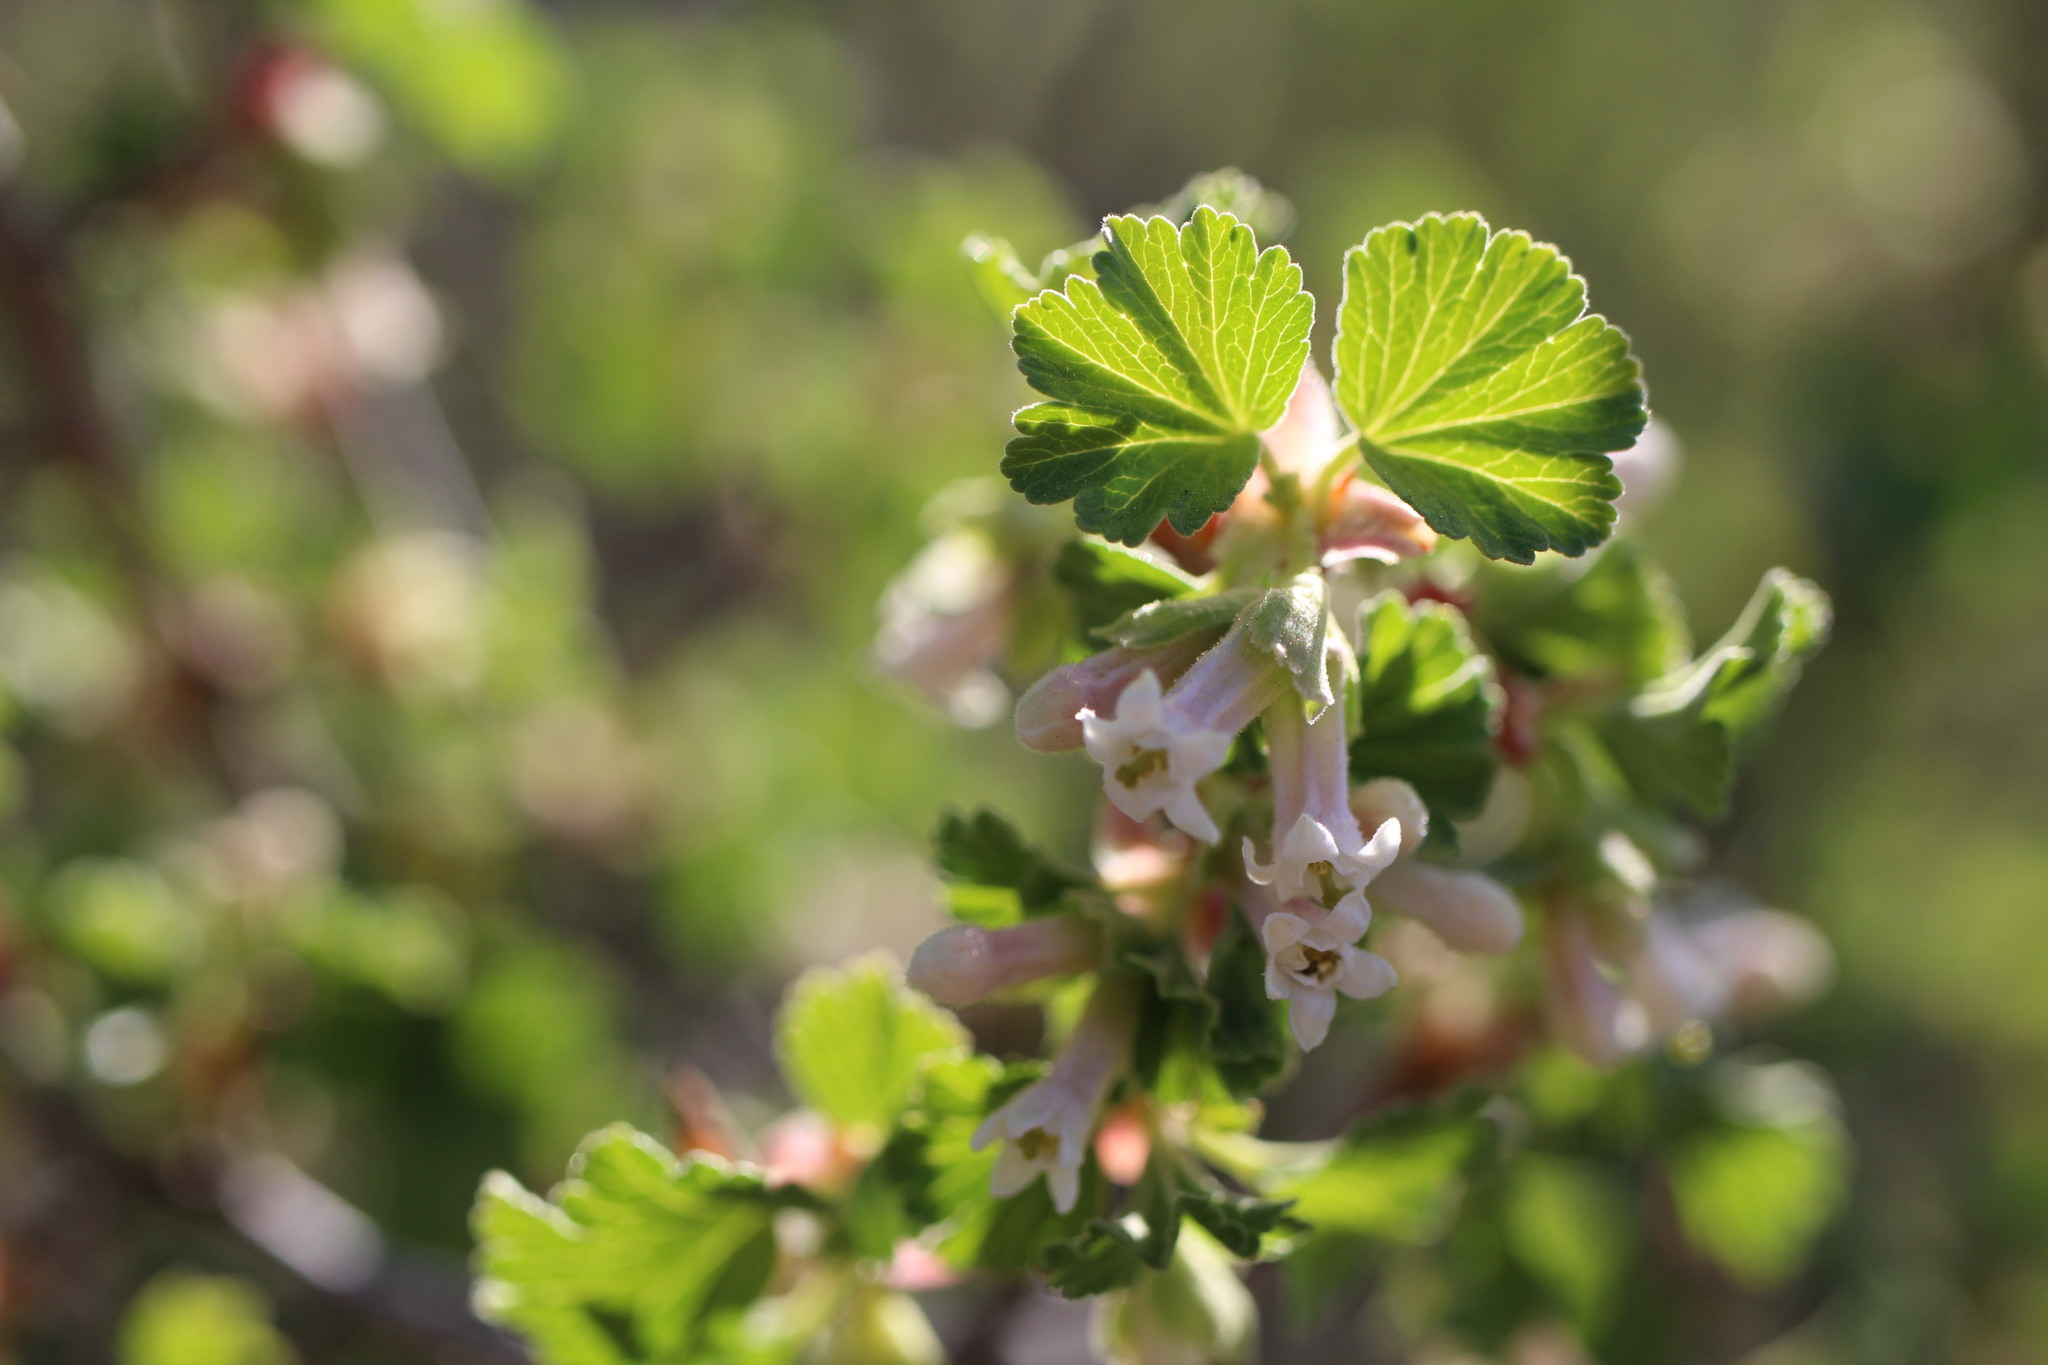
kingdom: Plantae
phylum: Tracheophyta
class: Magnoliopsida
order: Saxifragales
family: Grossulariaceae
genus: Ribes
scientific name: Ribes cereum
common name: Wax currant
